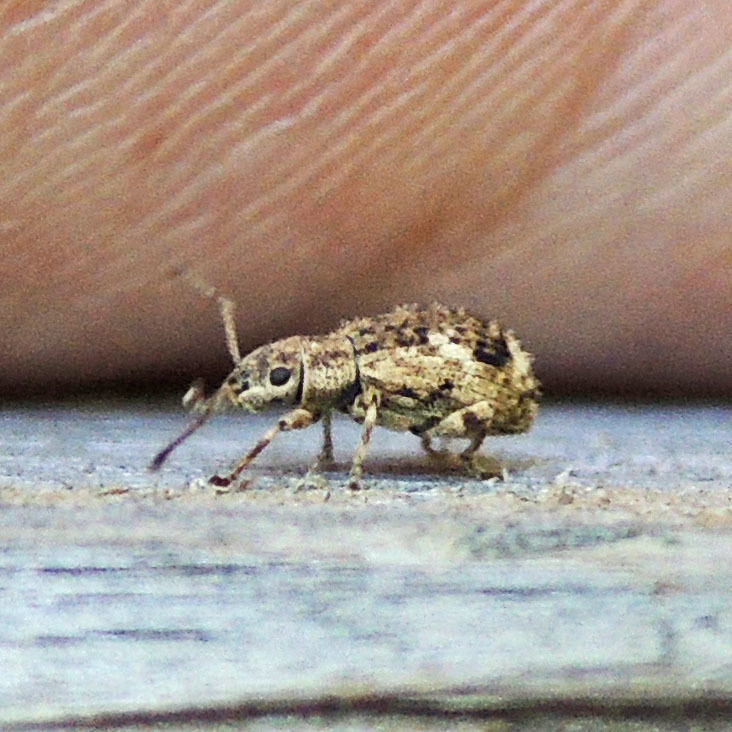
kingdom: Animalia
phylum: Arthropoda
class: Insecta
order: Coleoptera
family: Curculionidae
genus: Pseudoedophrys
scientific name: Pseudoedophrys hilleri
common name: Weevil
